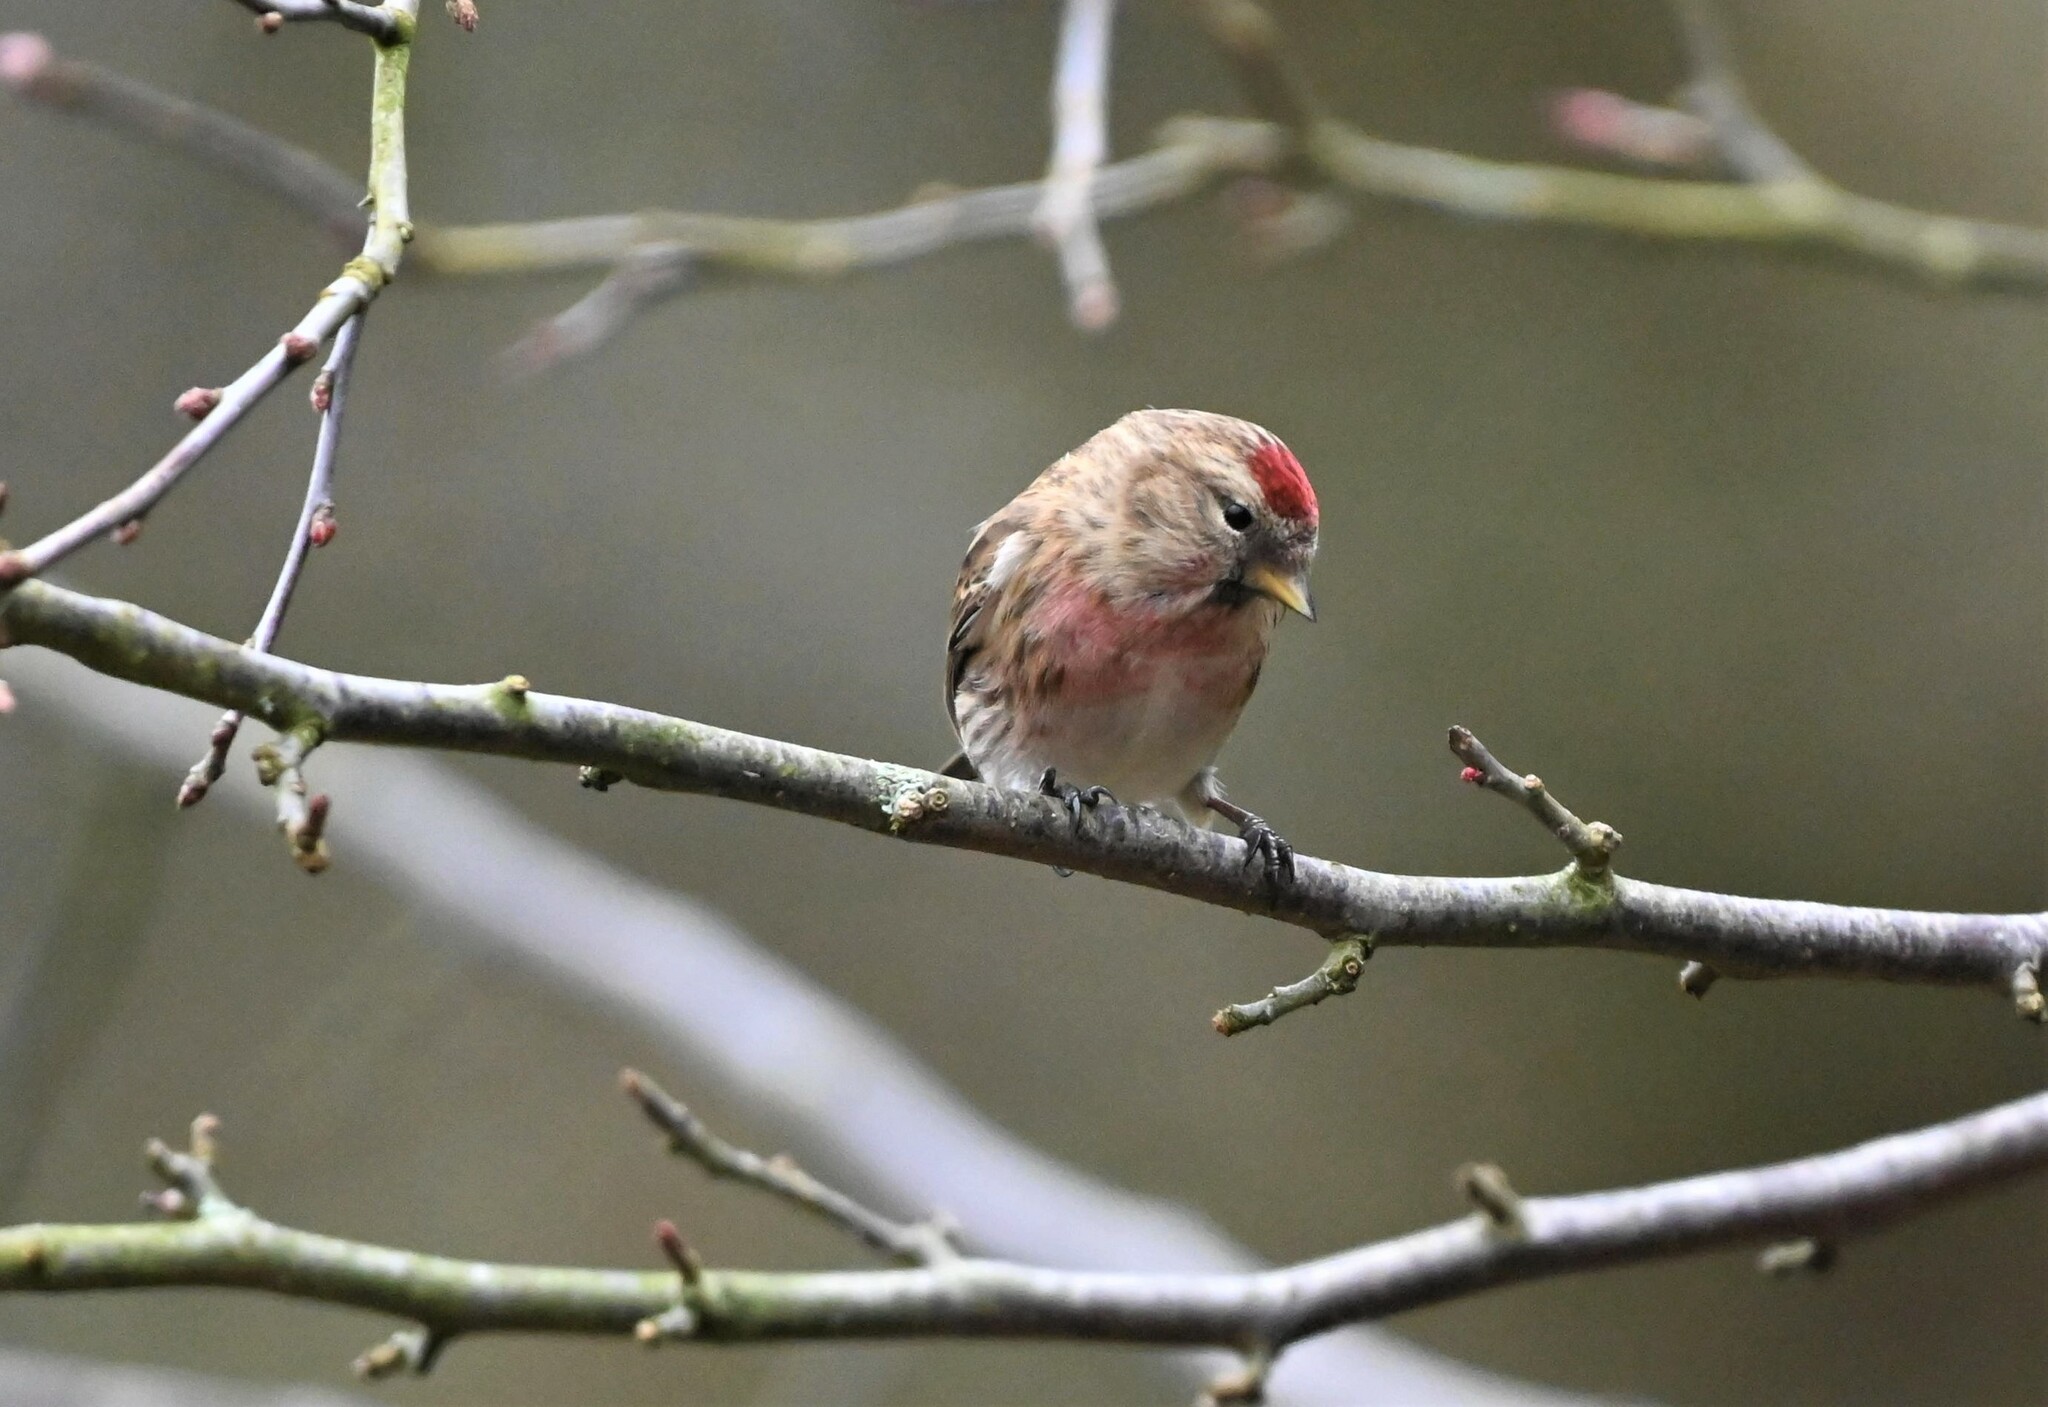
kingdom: Animalia
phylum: Chordata
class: Aves
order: Passeriformes
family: Fringillidae
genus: Acanthis
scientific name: Acanthis flammea
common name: Common redpoll
